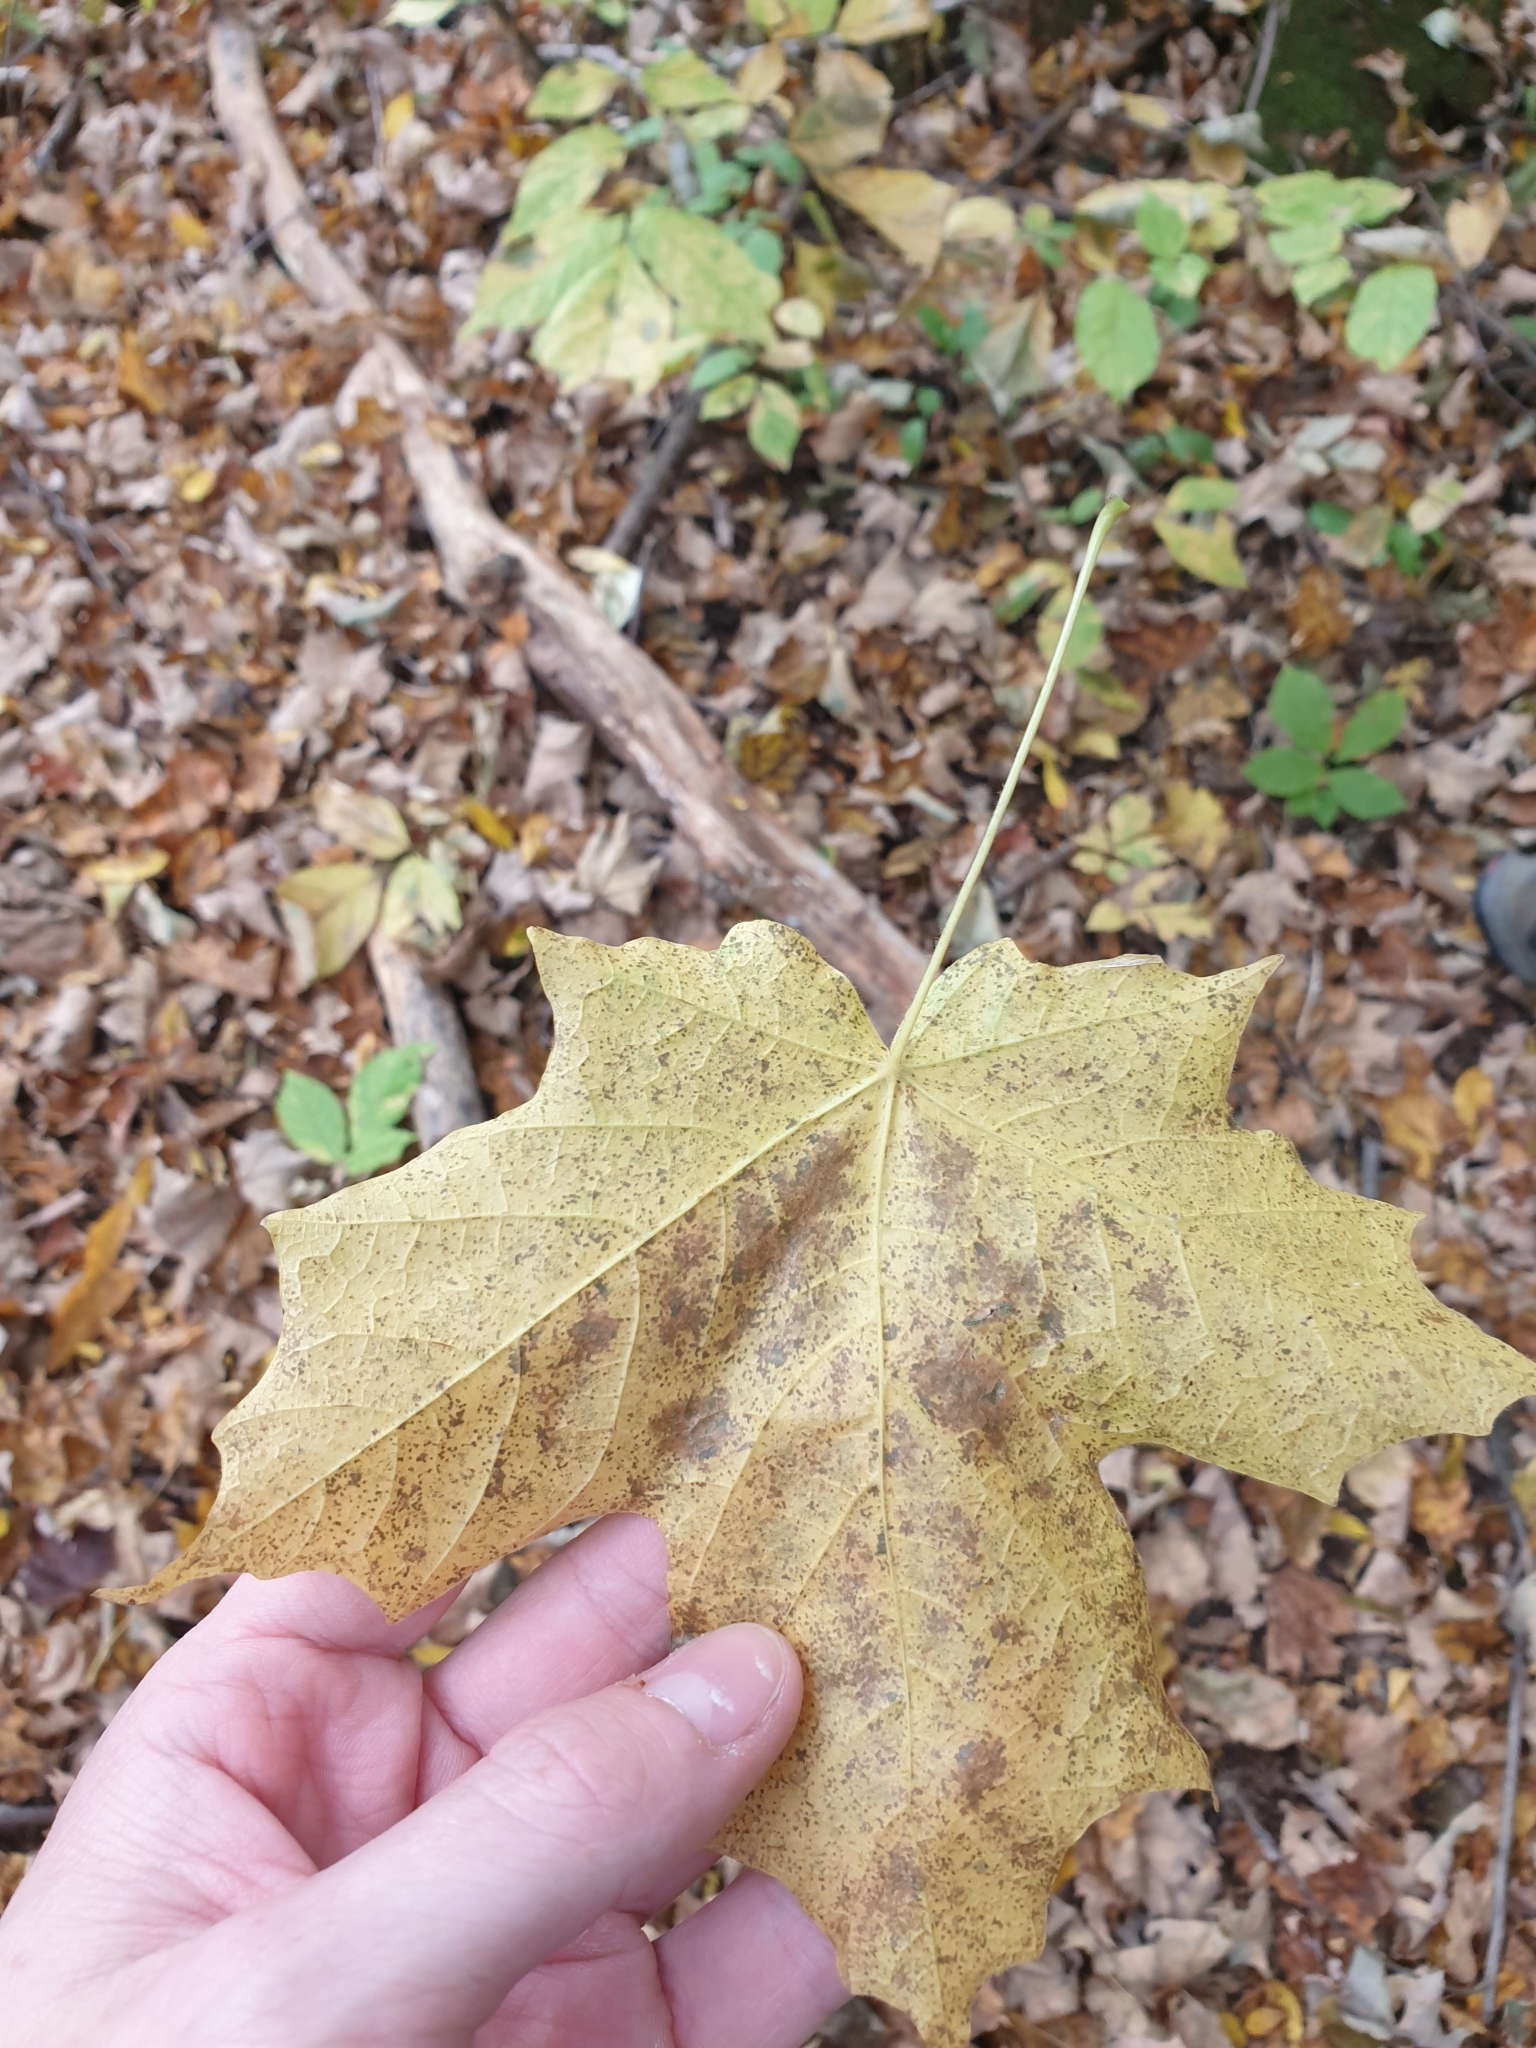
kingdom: Plantae
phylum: Tracheophyta
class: Magnoliopsida
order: Sapindales
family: Sapindaceae
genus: Acer
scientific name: Acer nigrum
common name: Black maple
